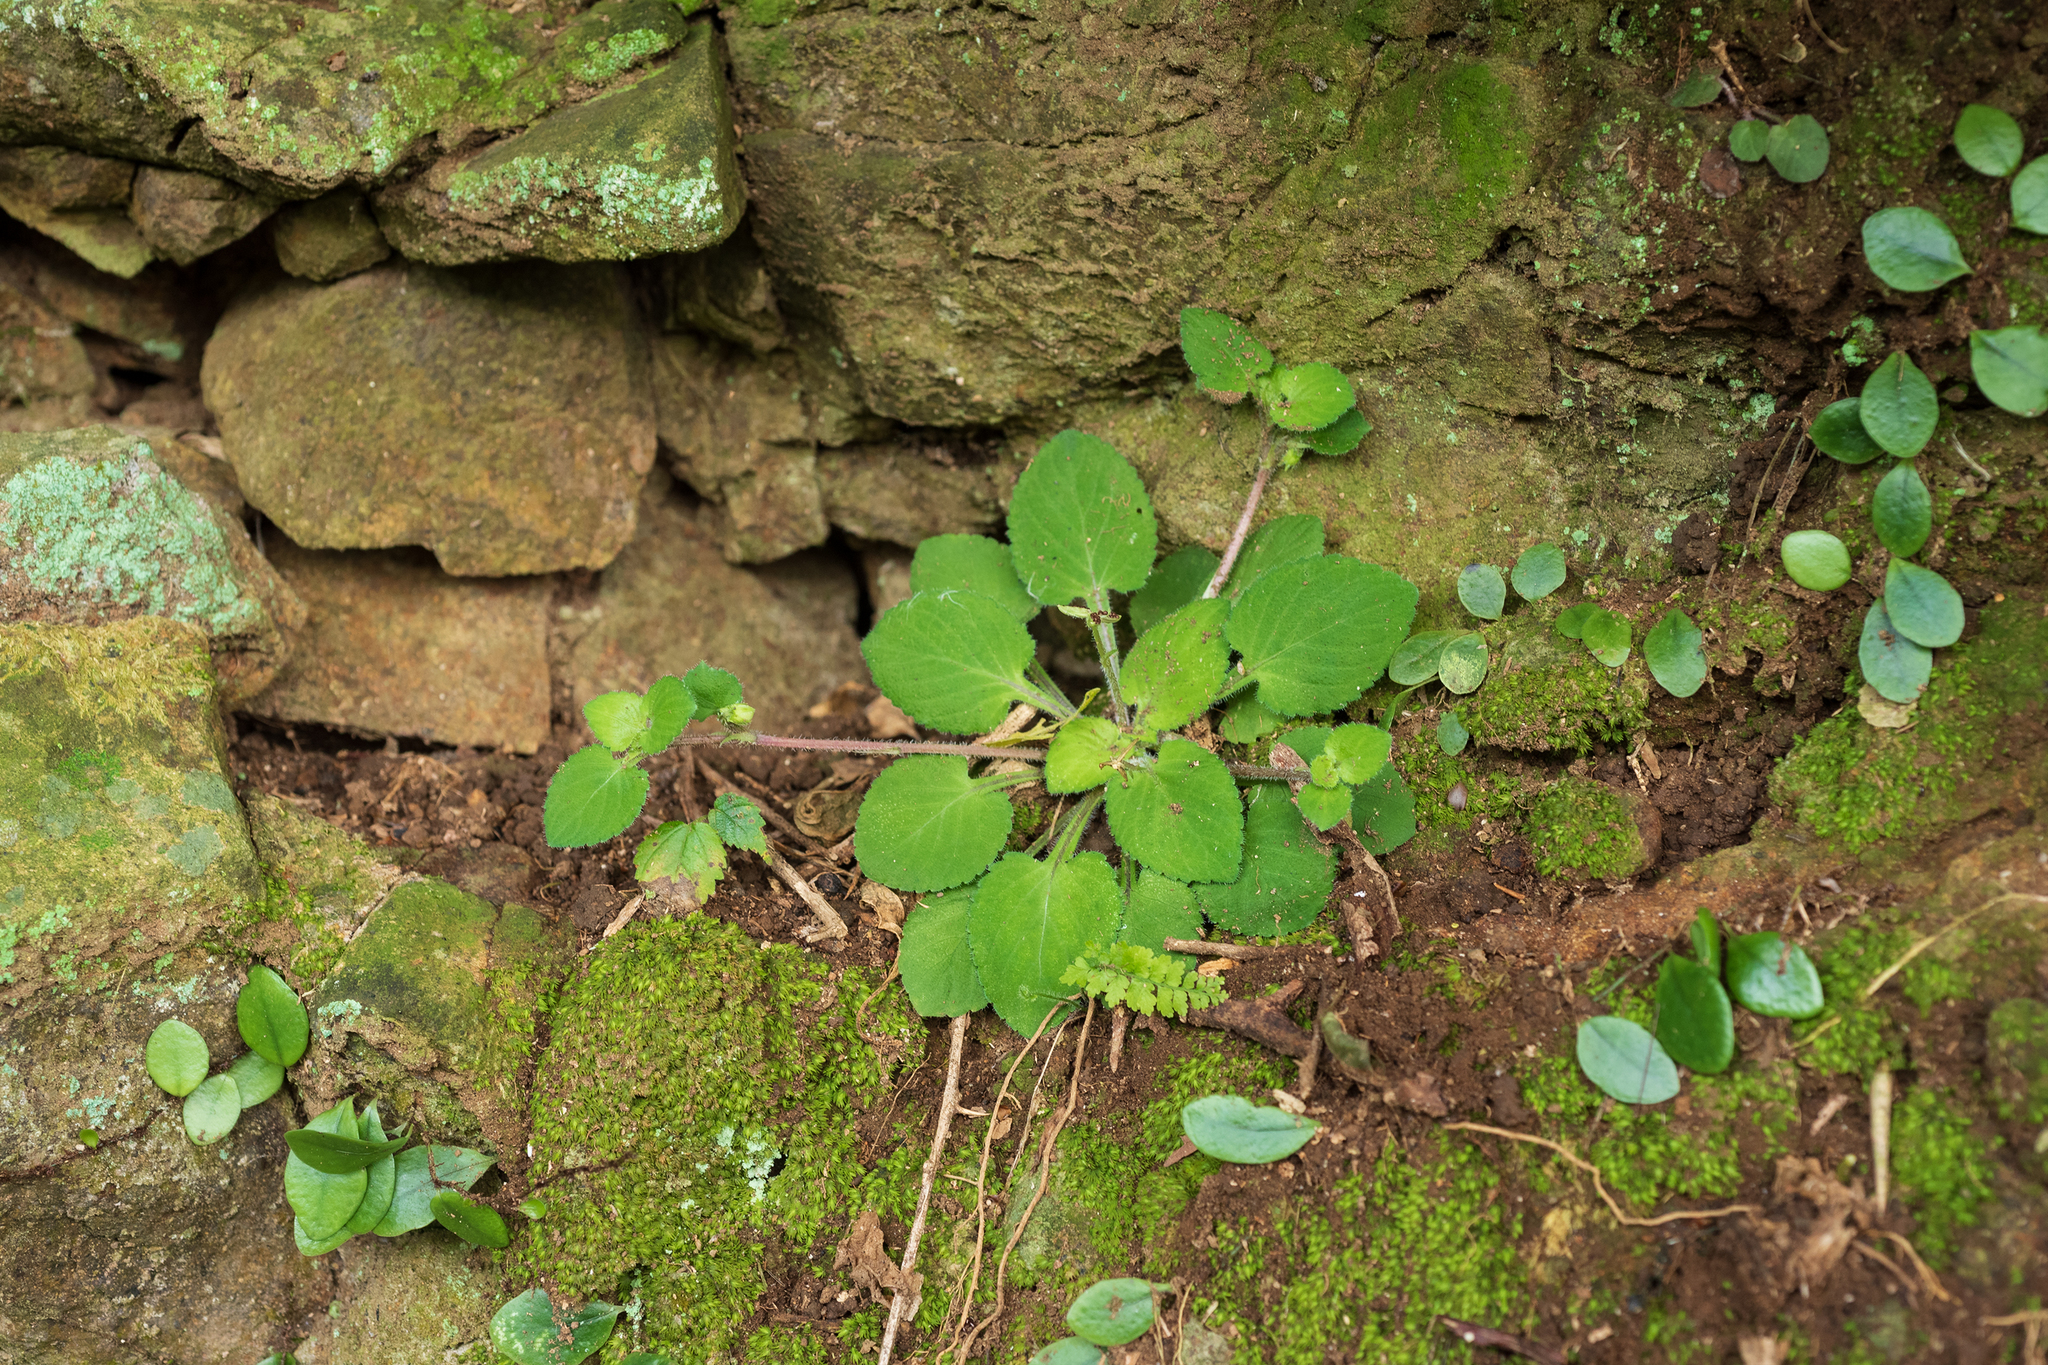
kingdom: Plantae
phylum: Tracheophyta
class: Magnoliopsida
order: Malpighiales
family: Violaceae
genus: Viola
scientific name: Viola diffusa
